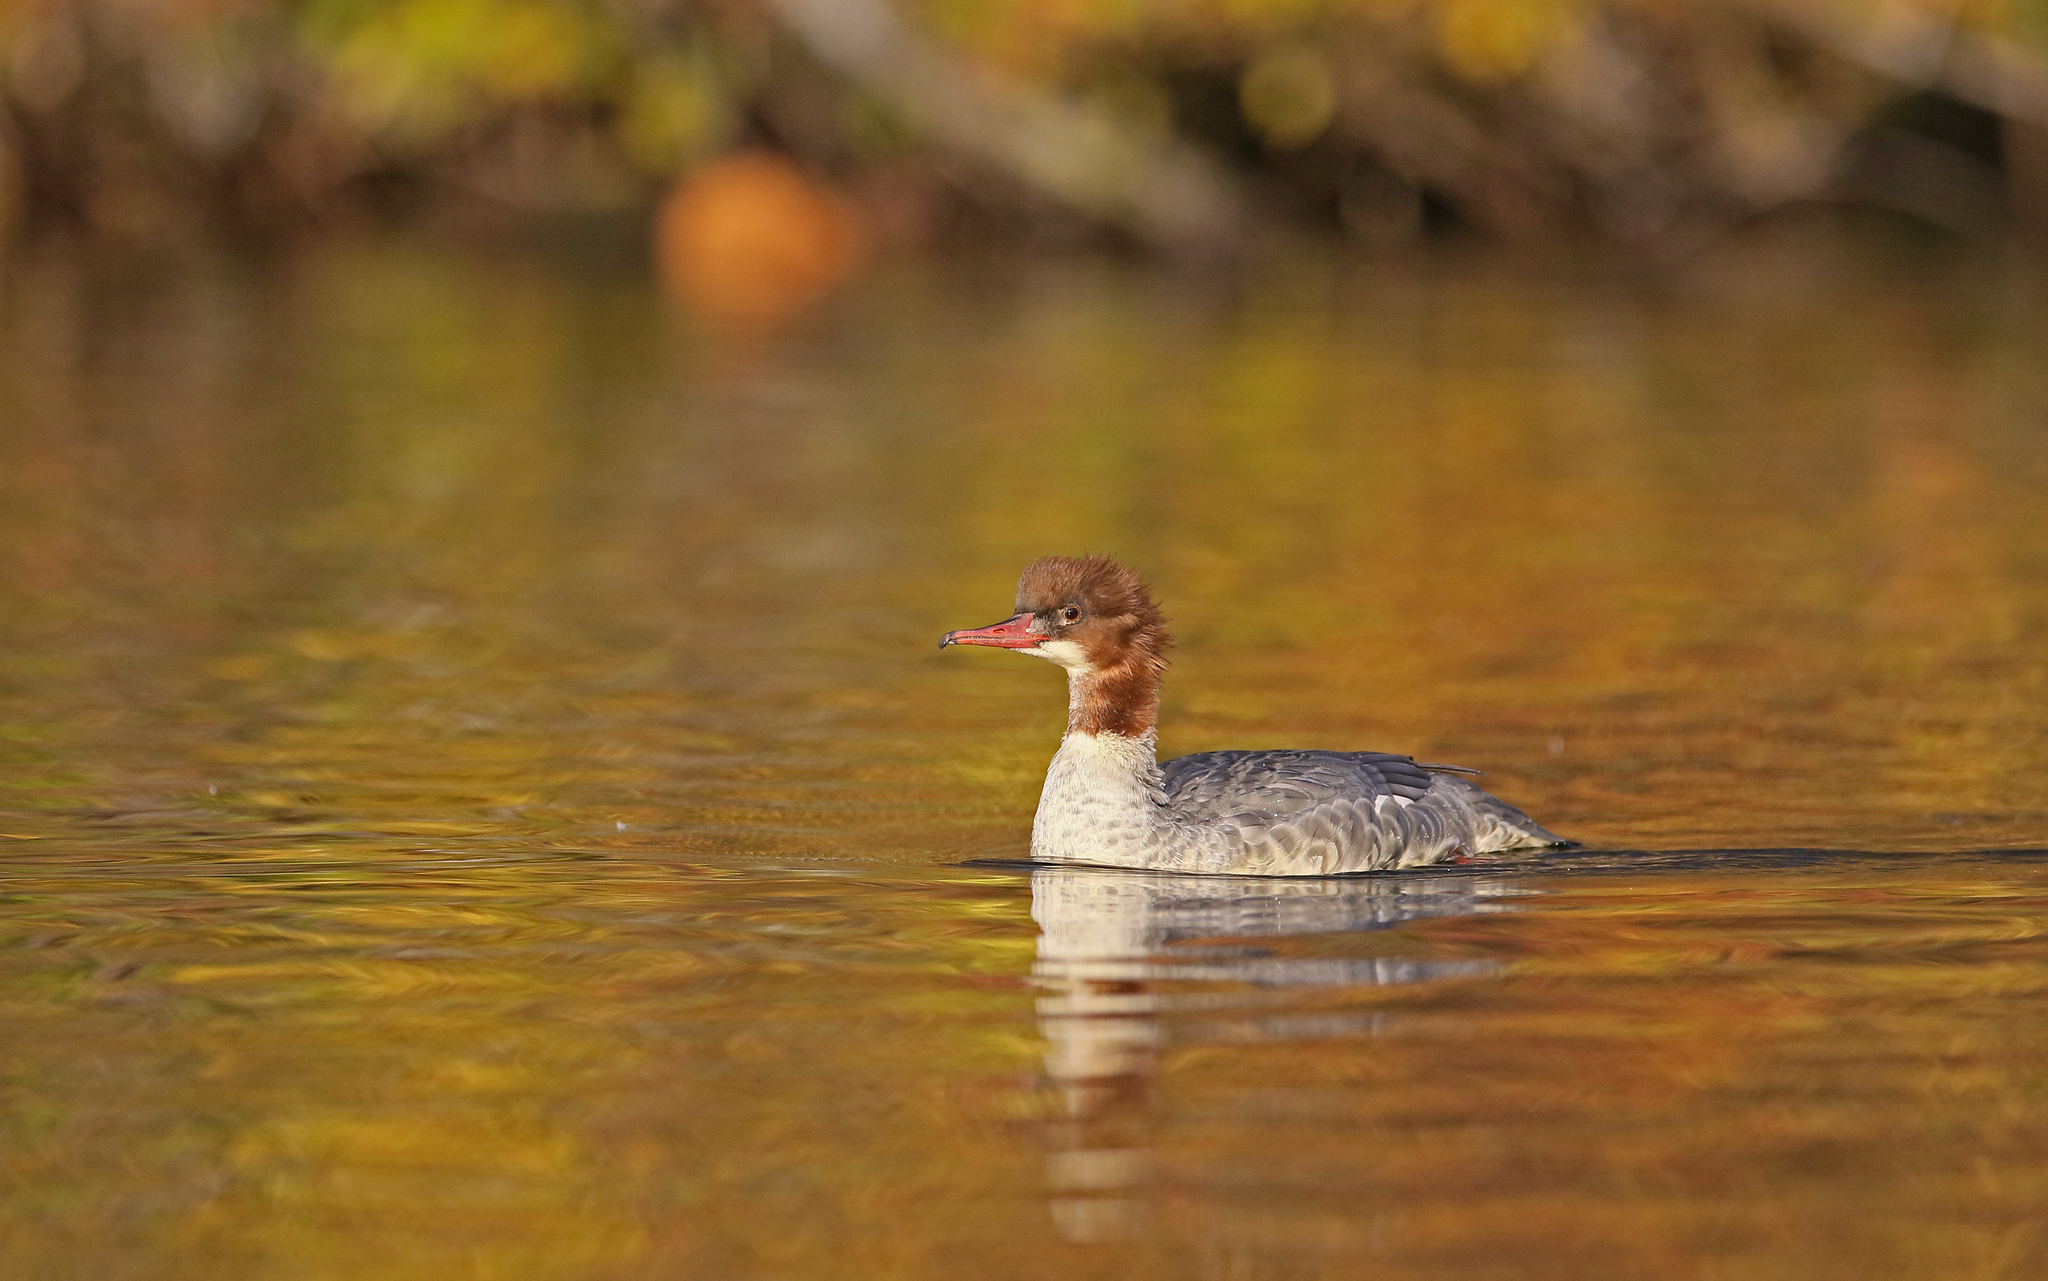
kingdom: Animalia
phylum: Chordata
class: Aves
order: Anseriformes
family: Anatidae
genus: Mergus
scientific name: Mergus merganser
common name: Common merganser
